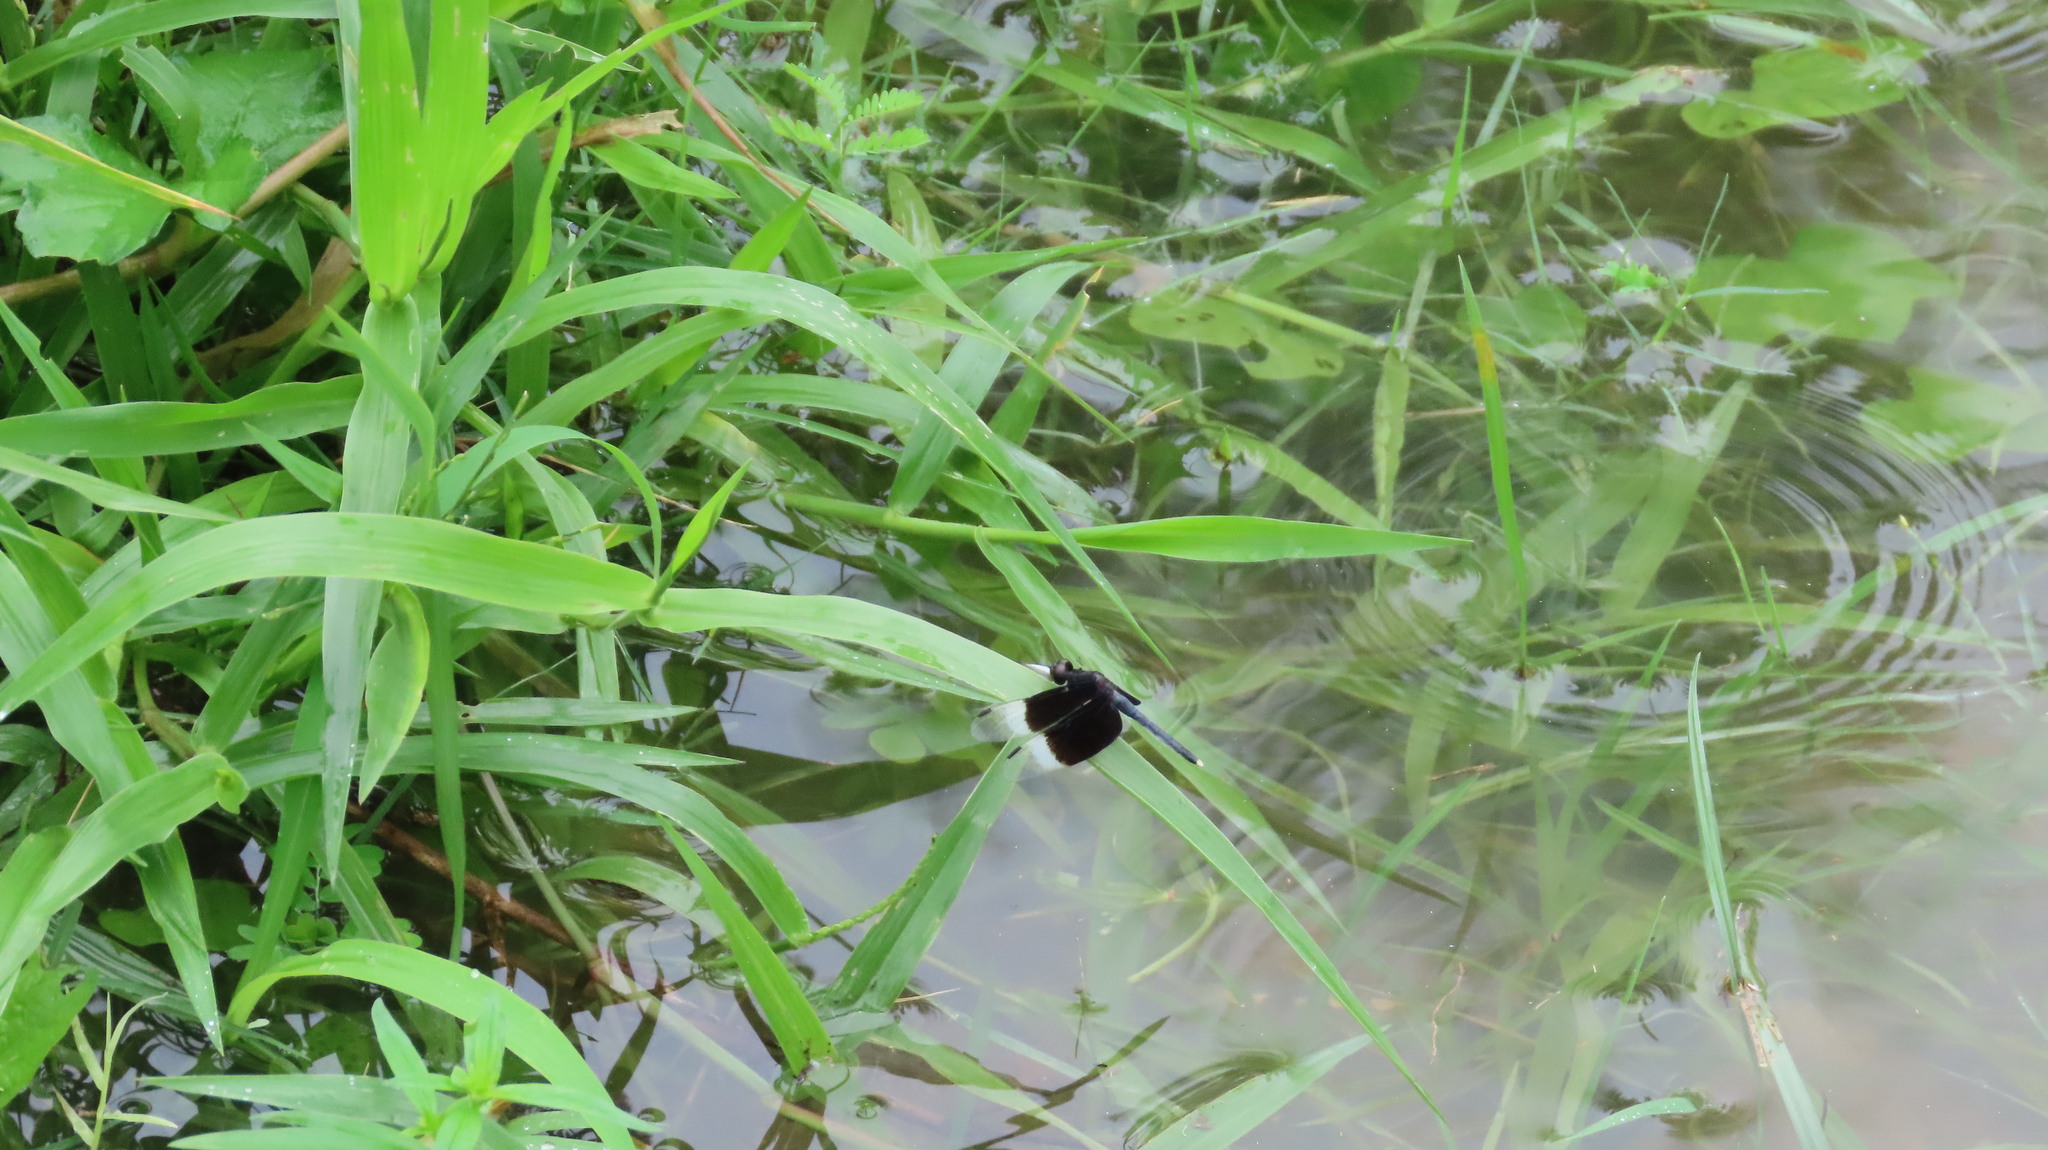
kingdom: Animalia
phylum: Arthropoda
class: Insecta
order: Odonata
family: Libellulidae
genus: Neurothemis
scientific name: Neurothemis tullia
